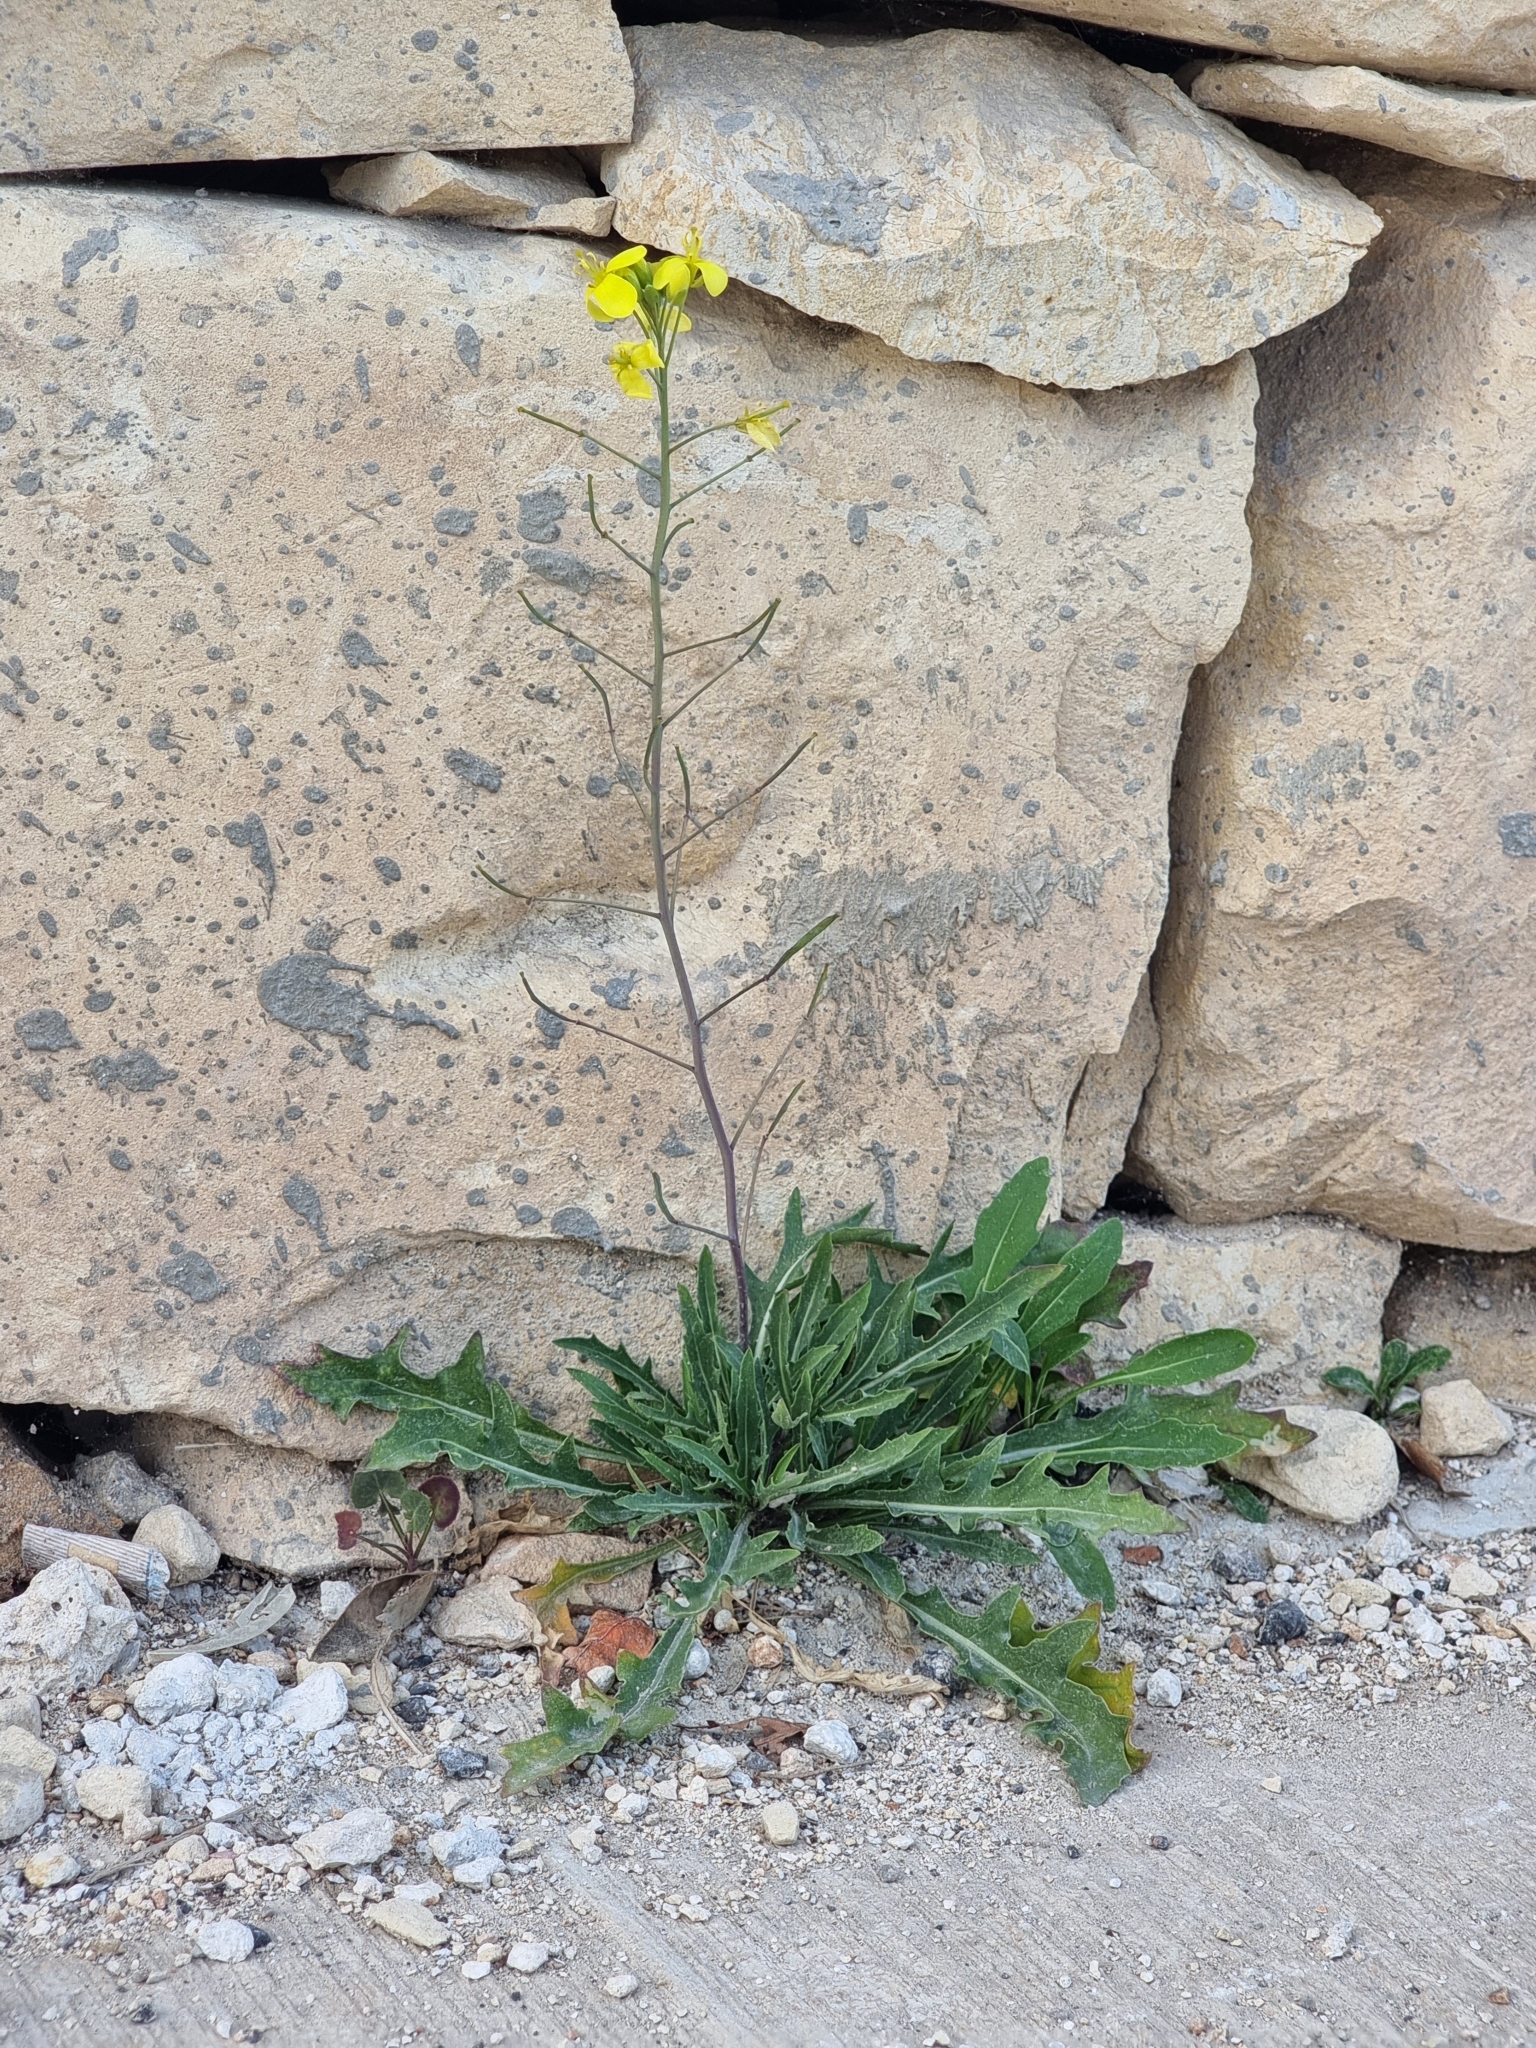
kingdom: Plantae
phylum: Tracheophyta
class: Magnoliopsida
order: Brassicales
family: Brassicaceae
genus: Diplotaxis
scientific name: Diplotaxis tenuifolia
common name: Perennial wall-rocket
